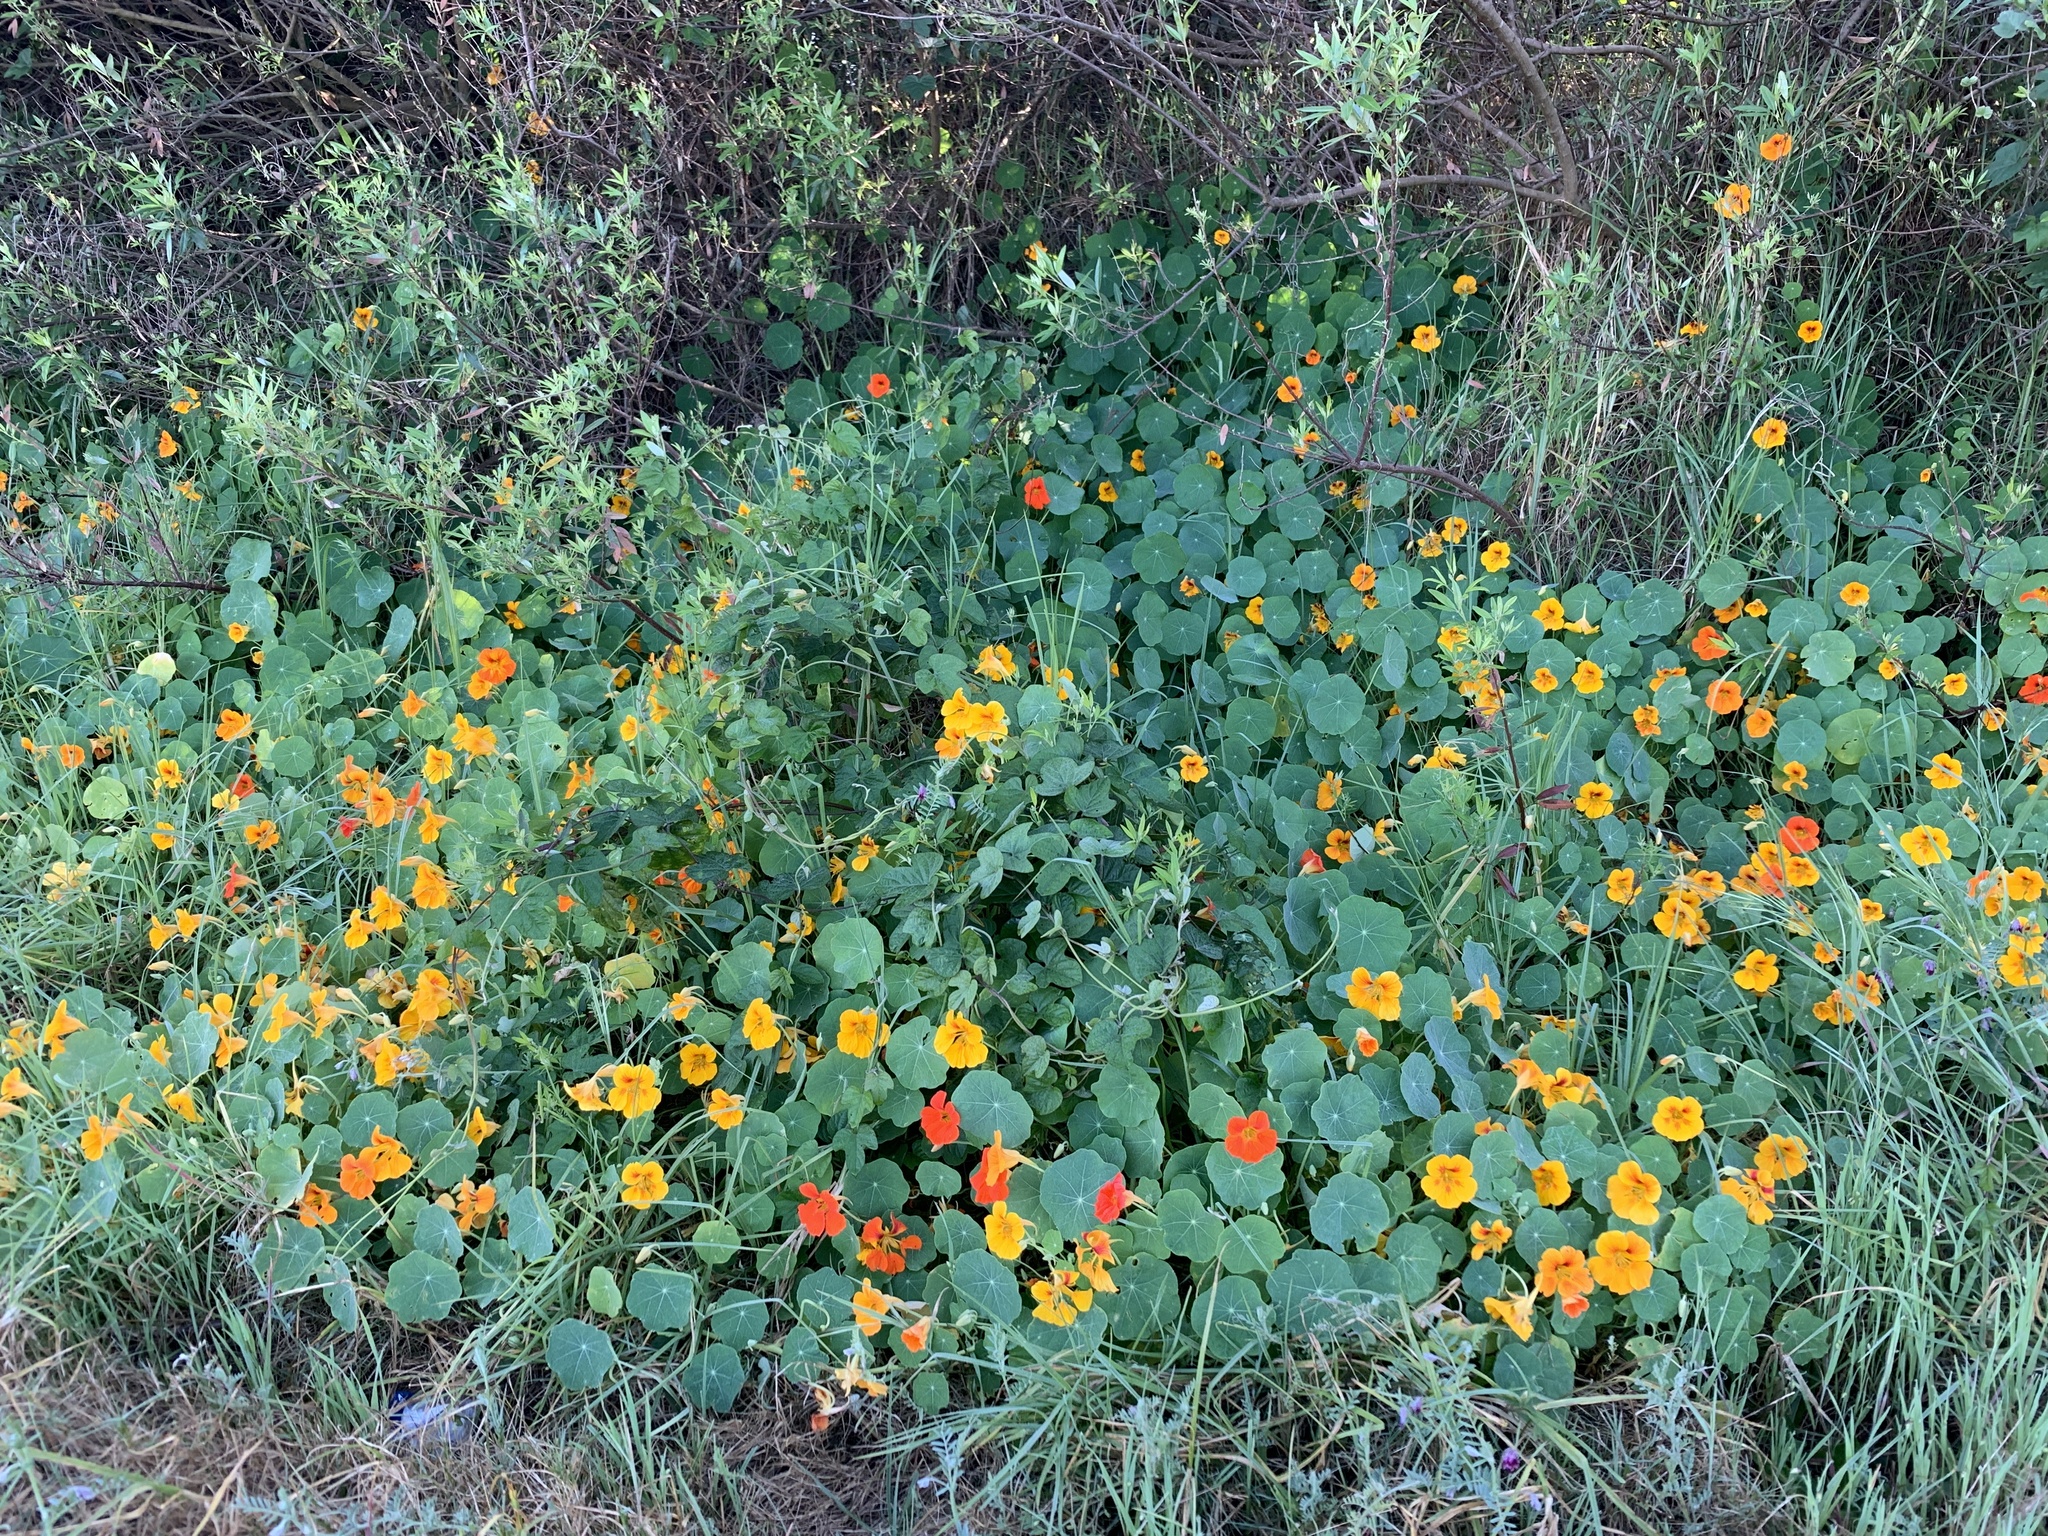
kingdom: Plantae
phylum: Tracheophyta
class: Magnoliopsida
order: Brassicales
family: Tropaeolaceae
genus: Tropaeolum
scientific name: Tropaeolum majus
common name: Nasturtium
